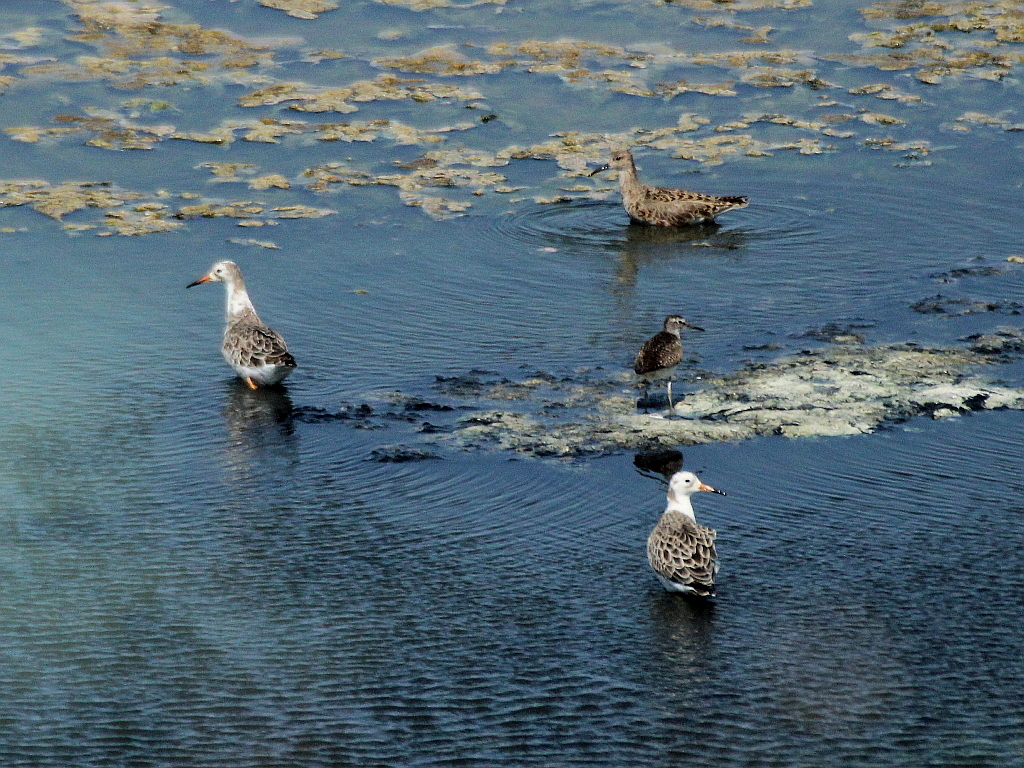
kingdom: Animalia
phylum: Chordata
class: Aves
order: Charadriiformes
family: Scolopacidae
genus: Calidris
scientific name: Calidris pugnax
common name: Ruff
